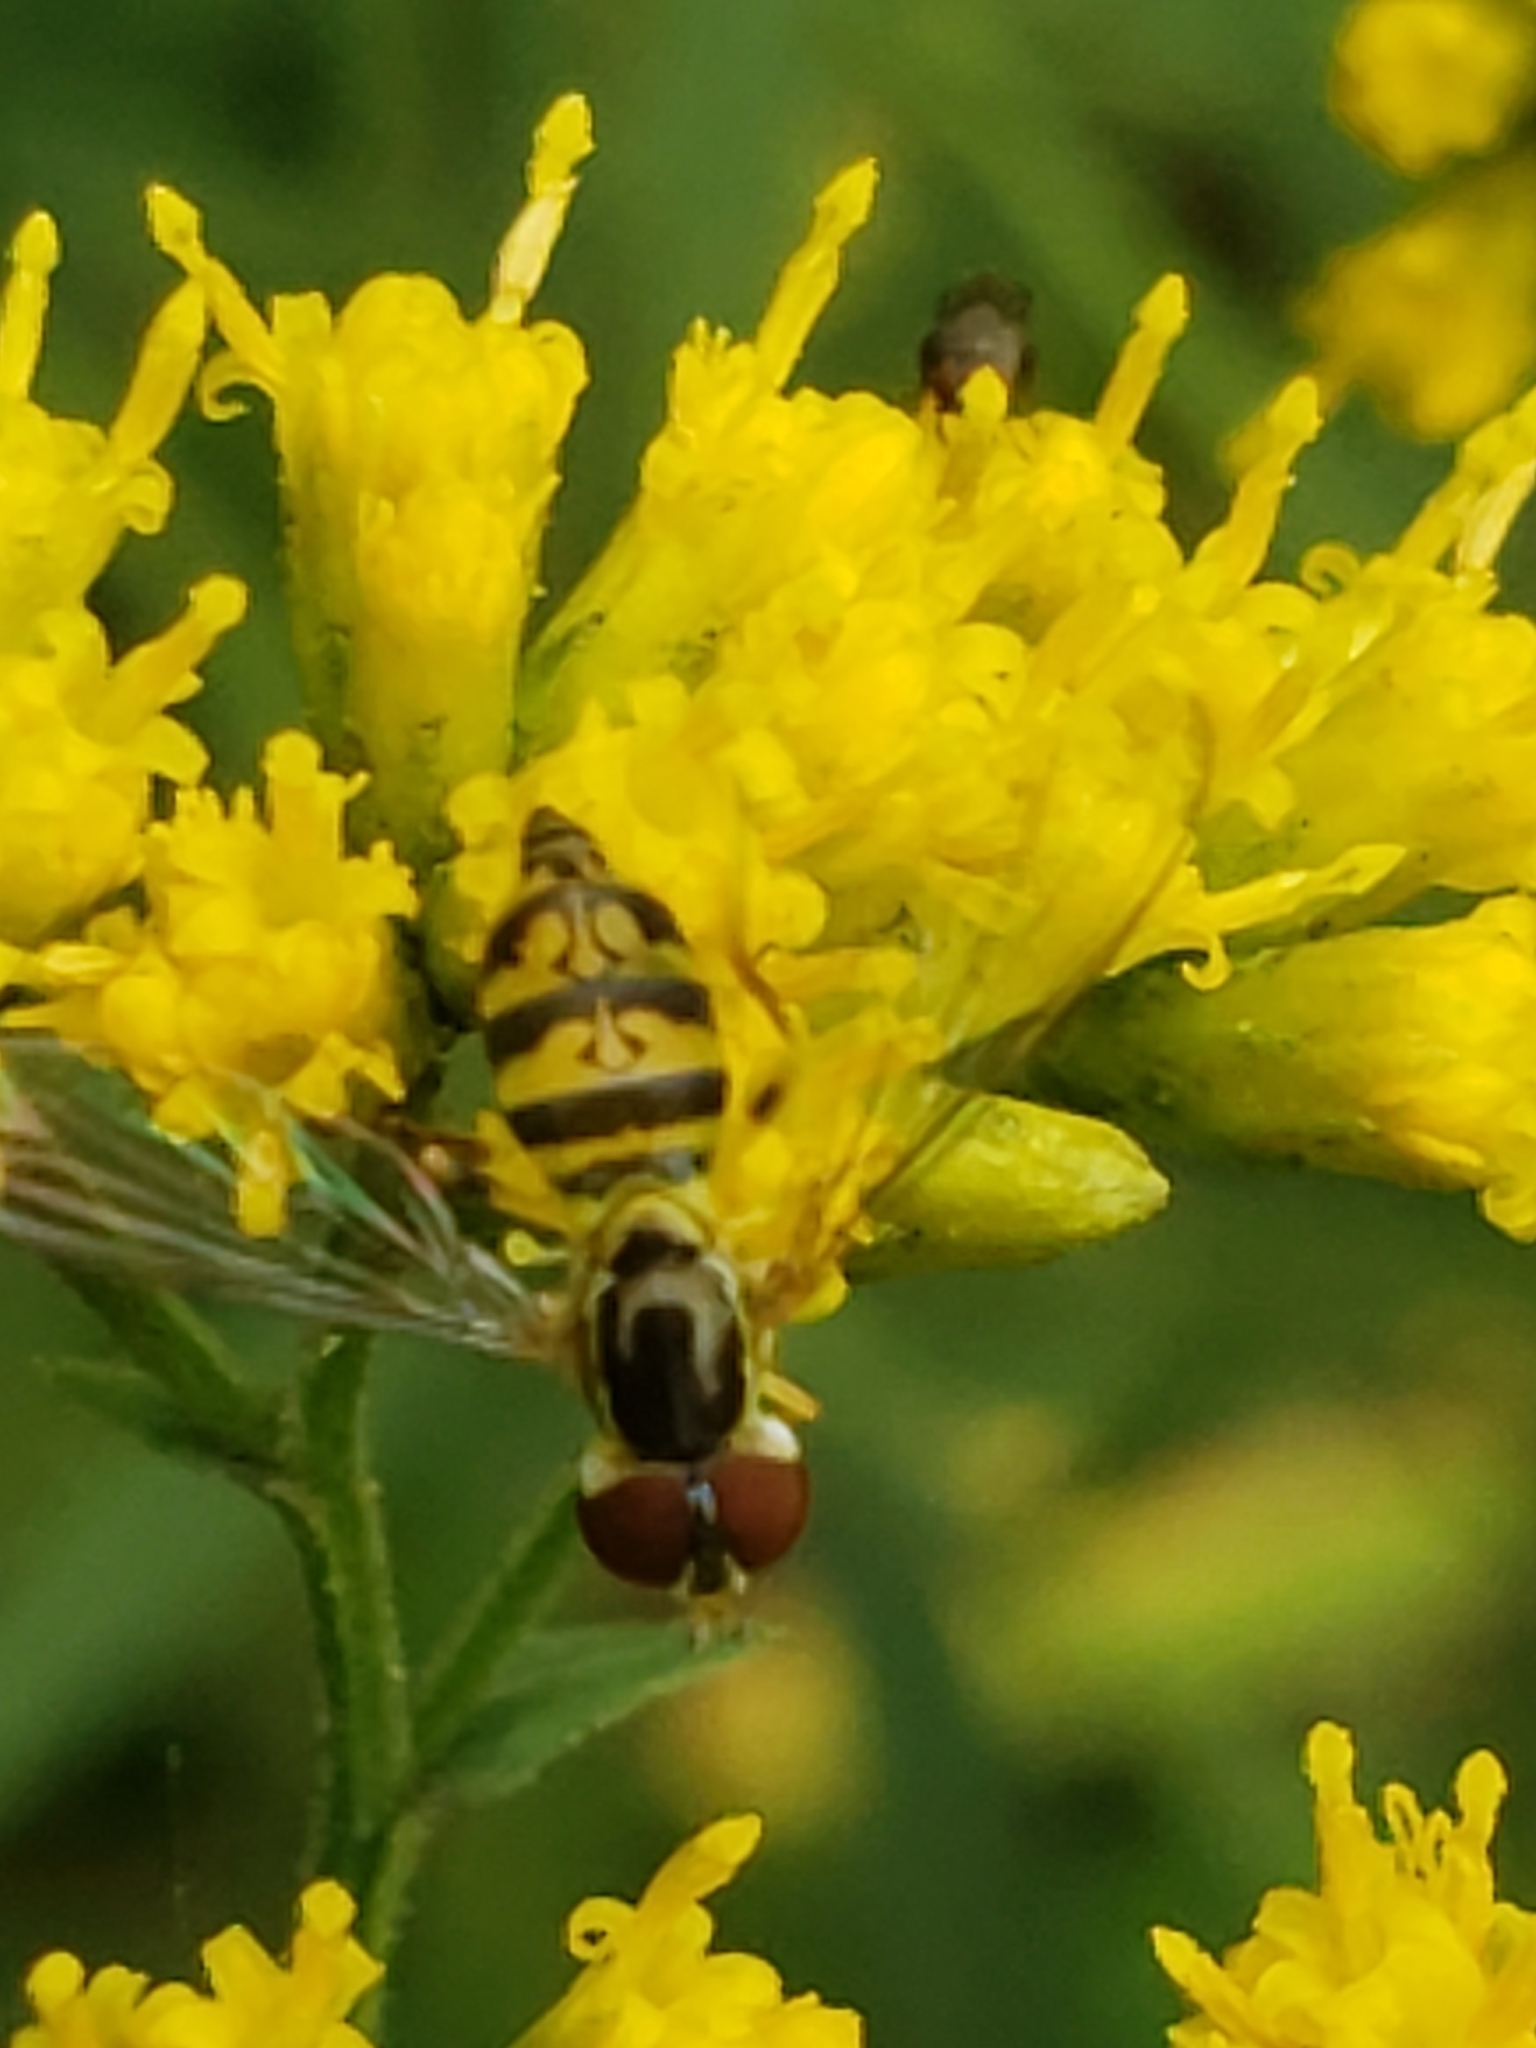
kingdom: Animalia
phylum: Arthropoda
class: Insecta
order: Diptera
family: Syrphidae
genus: Toxomerus
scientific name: Toxomerus geminatus
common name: Eastern calligrapher
